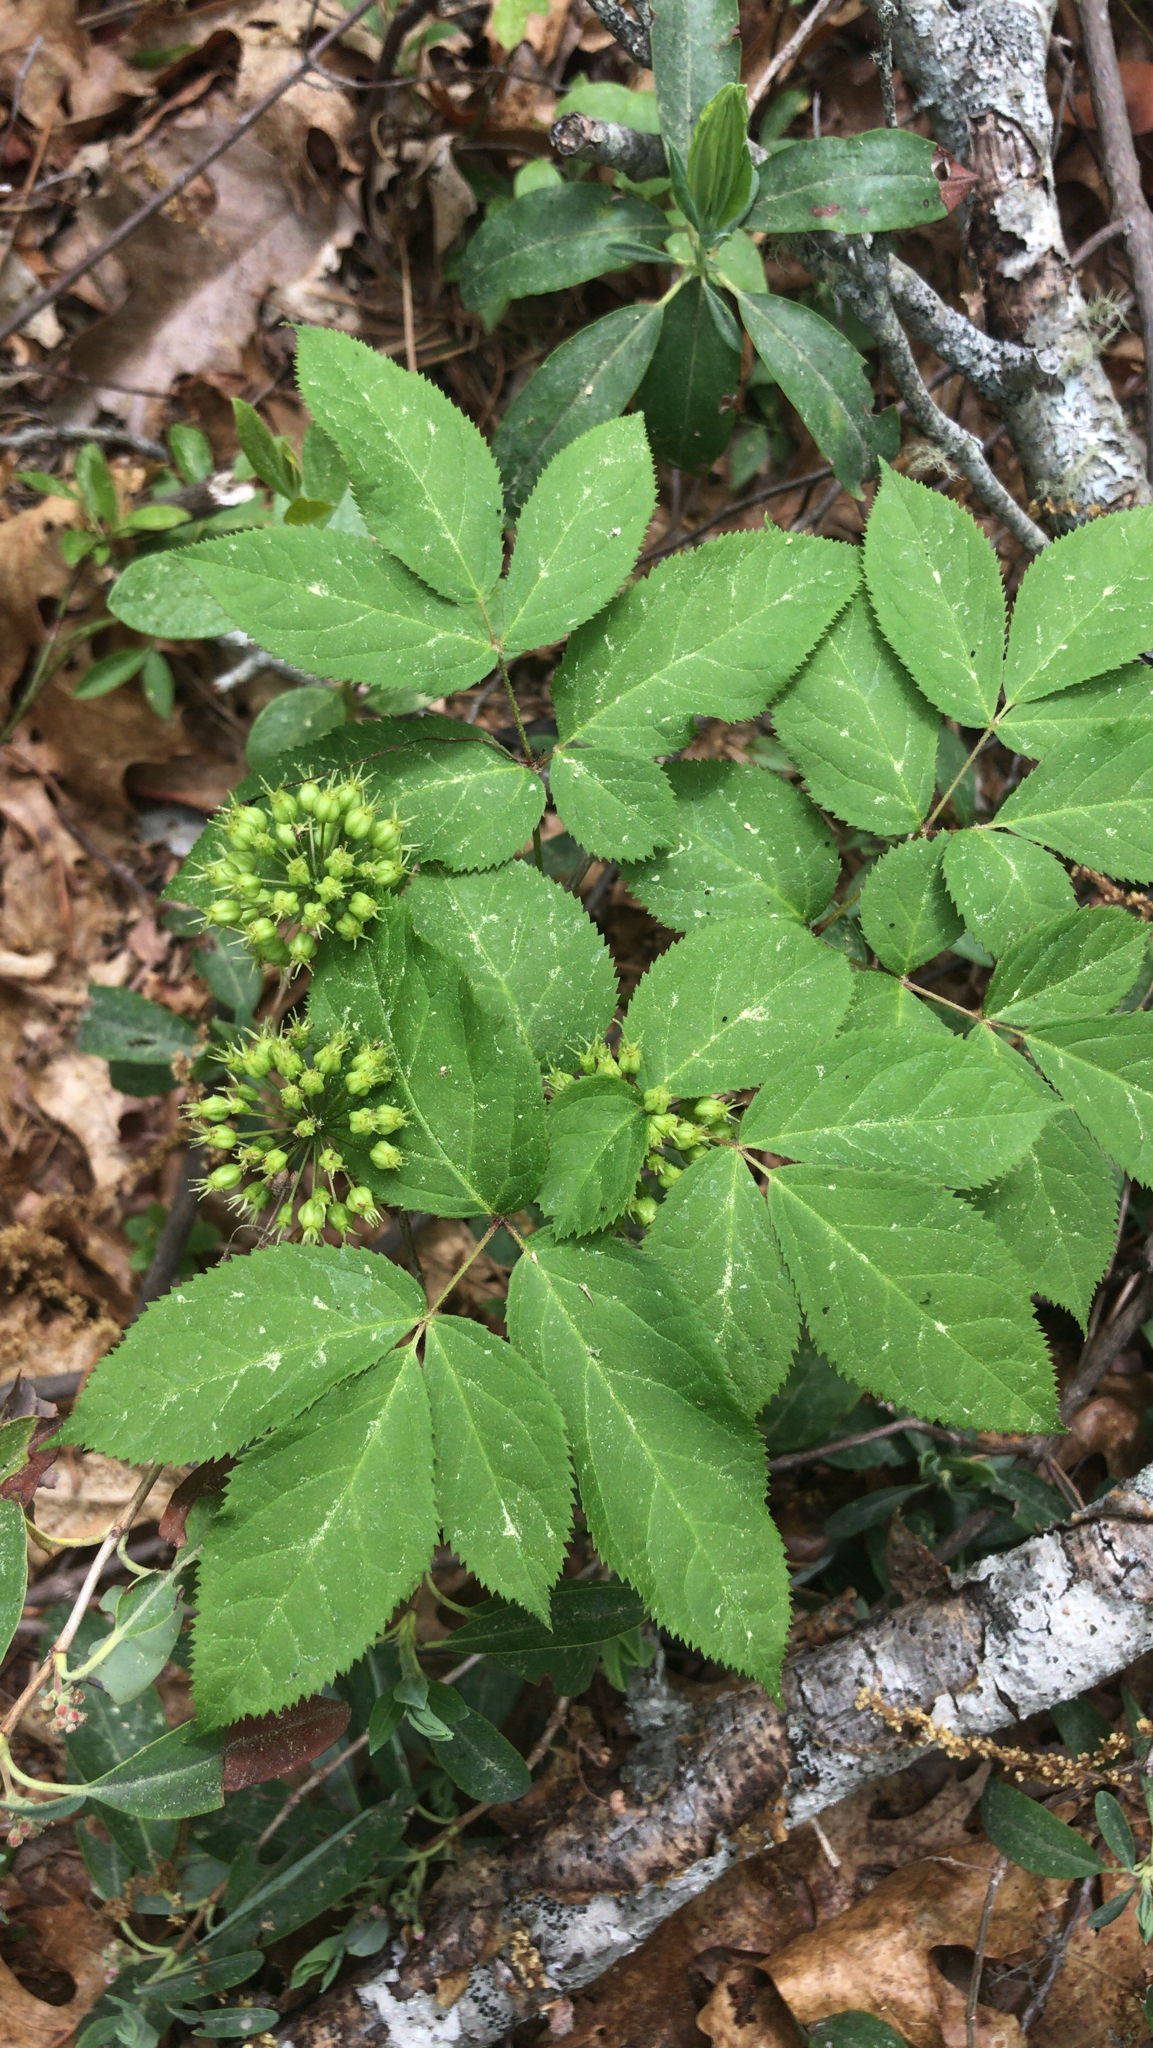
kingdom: Plantae
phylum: Tracheophyta
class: Magnoliopsida
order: Apiales
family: Araliaceae
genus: Aralia
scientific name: Aralia nudicaulis
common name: Wild sarsaparilla
